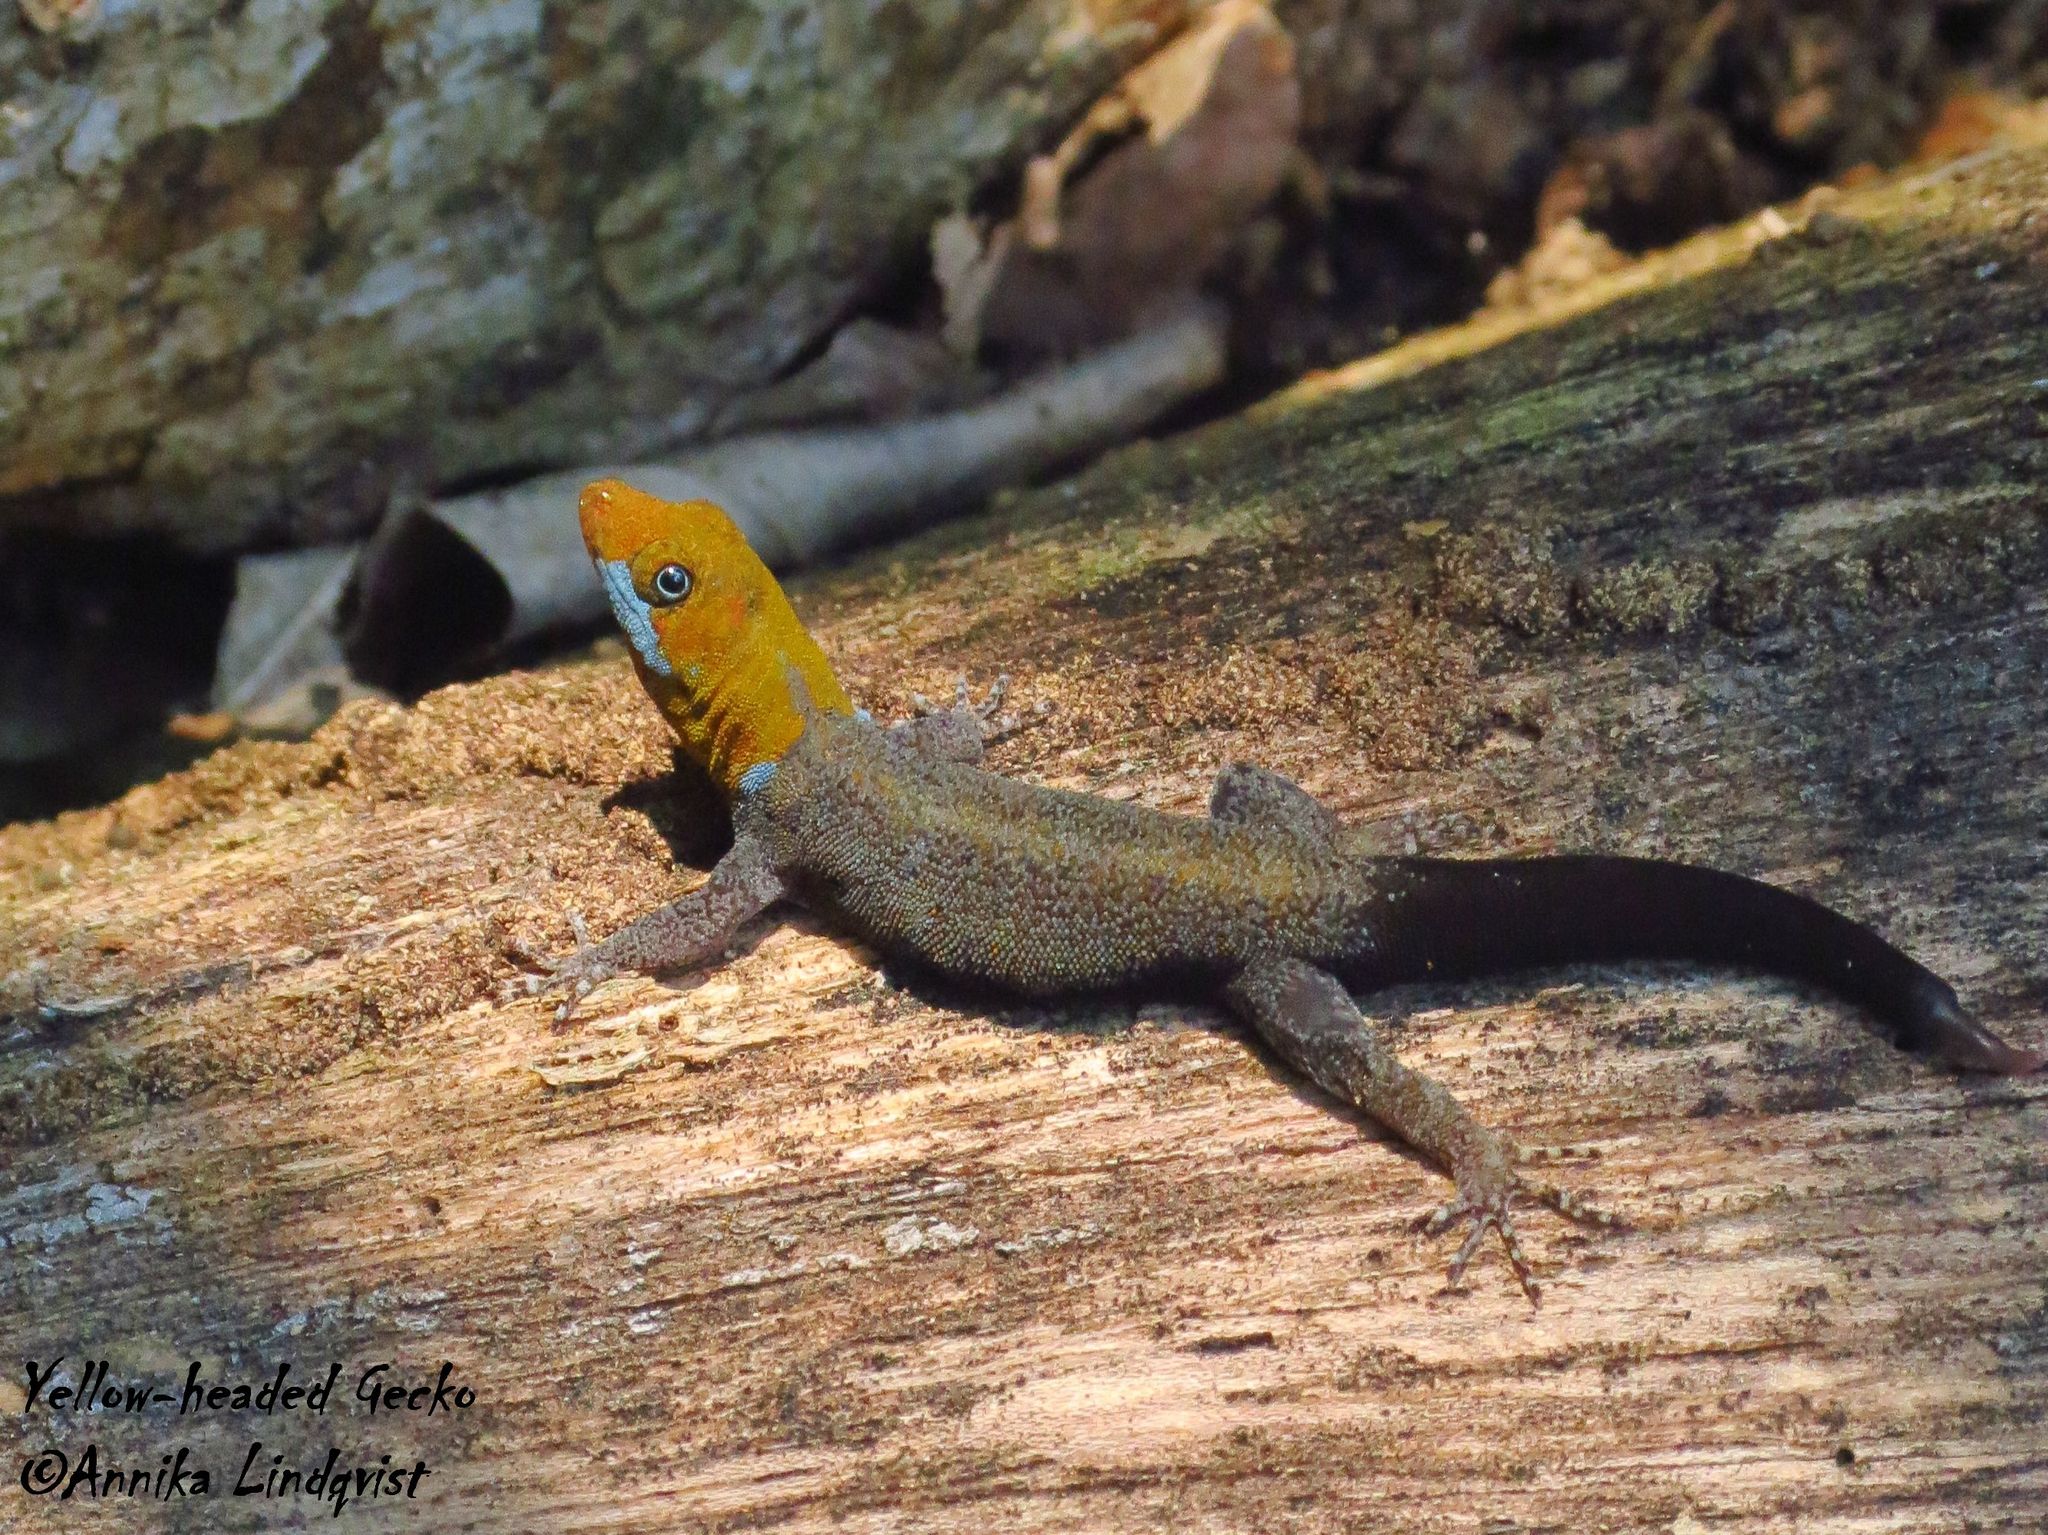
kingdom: Animalia
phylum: Chordata
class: Squamata
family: Sphaerodactylidae
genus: Gonatodes
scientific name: Gonatodes albogularis
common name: Yellow-headed gecko
